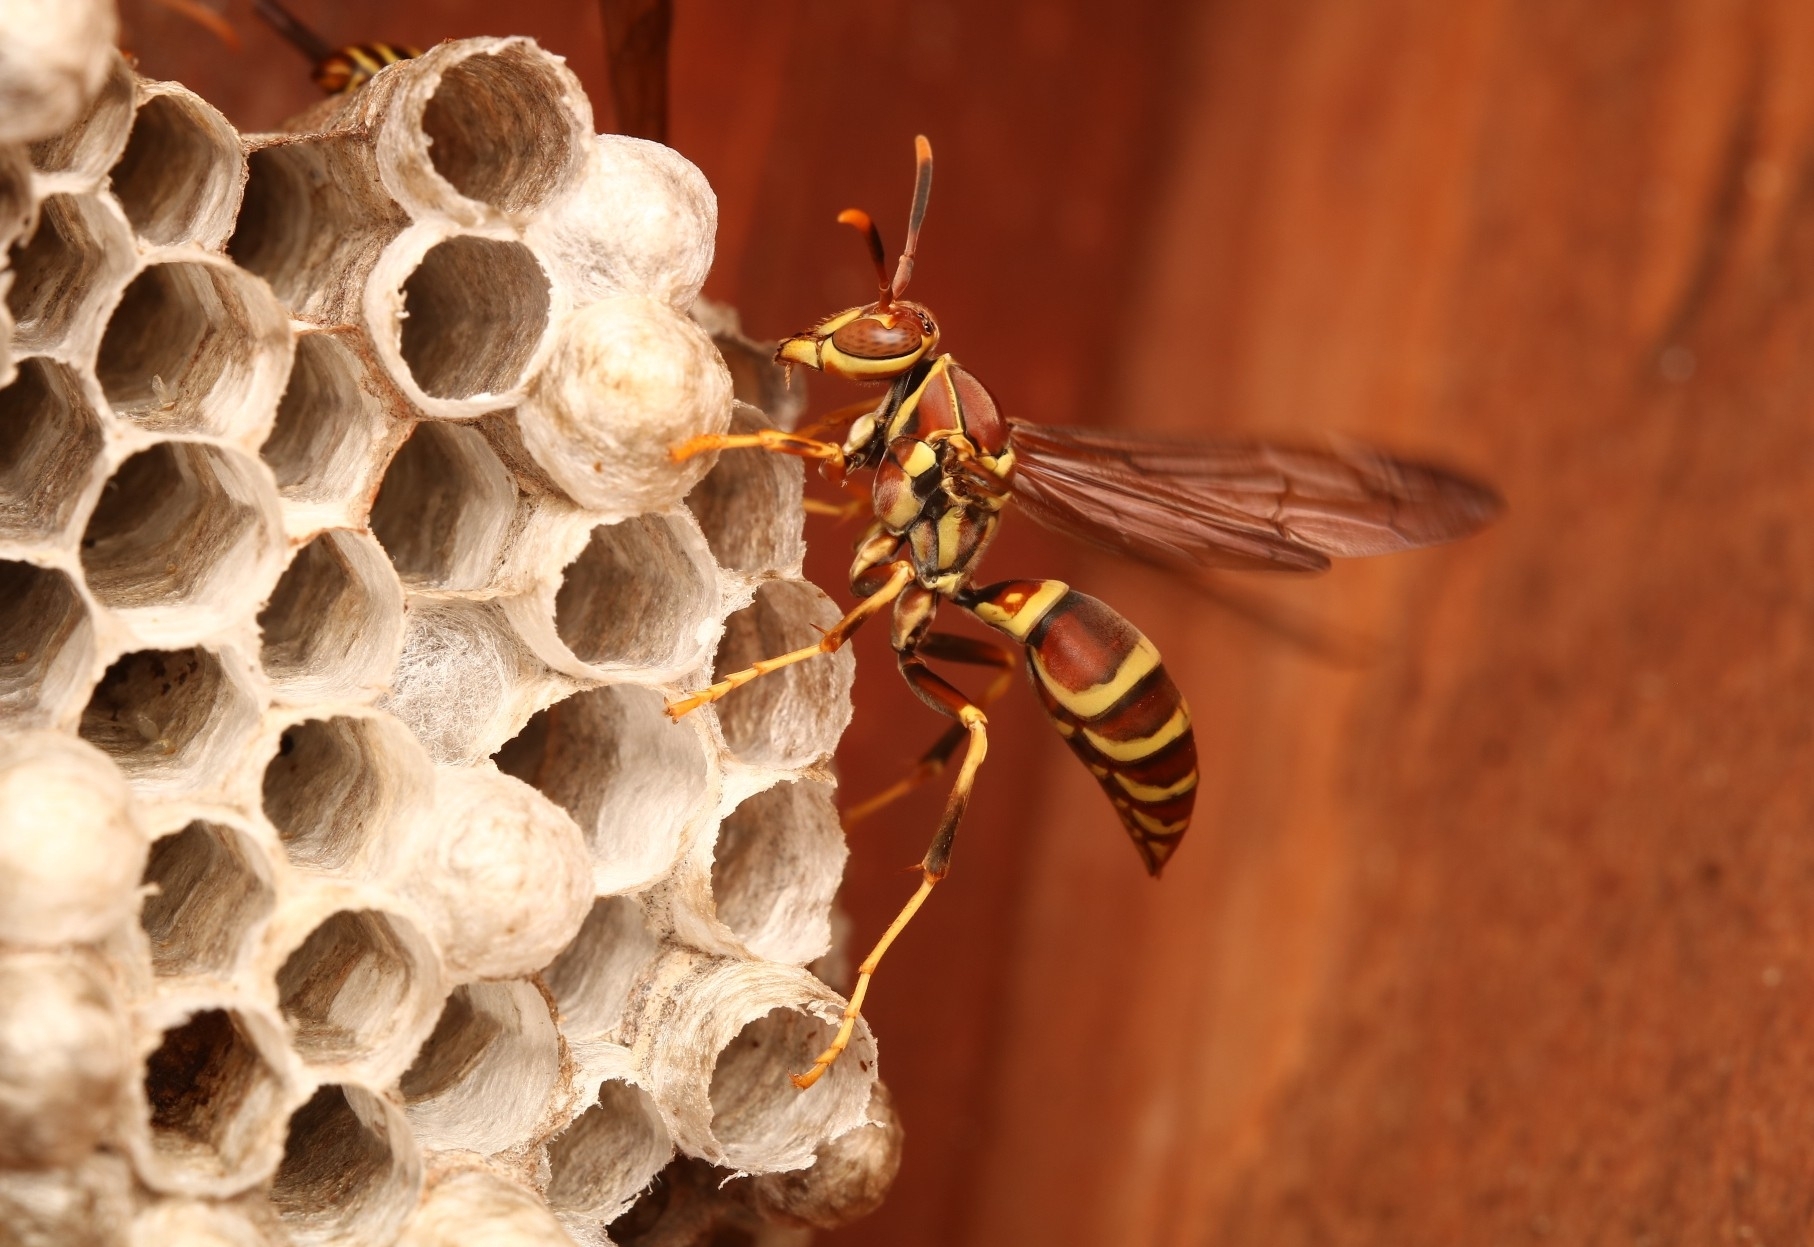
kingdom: Animalia
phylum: Arthropoda
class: Insecta
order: Hymenoptera
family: Eumenidae
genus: Polistes
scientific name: Polistes exclamans
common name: Paper wasp
